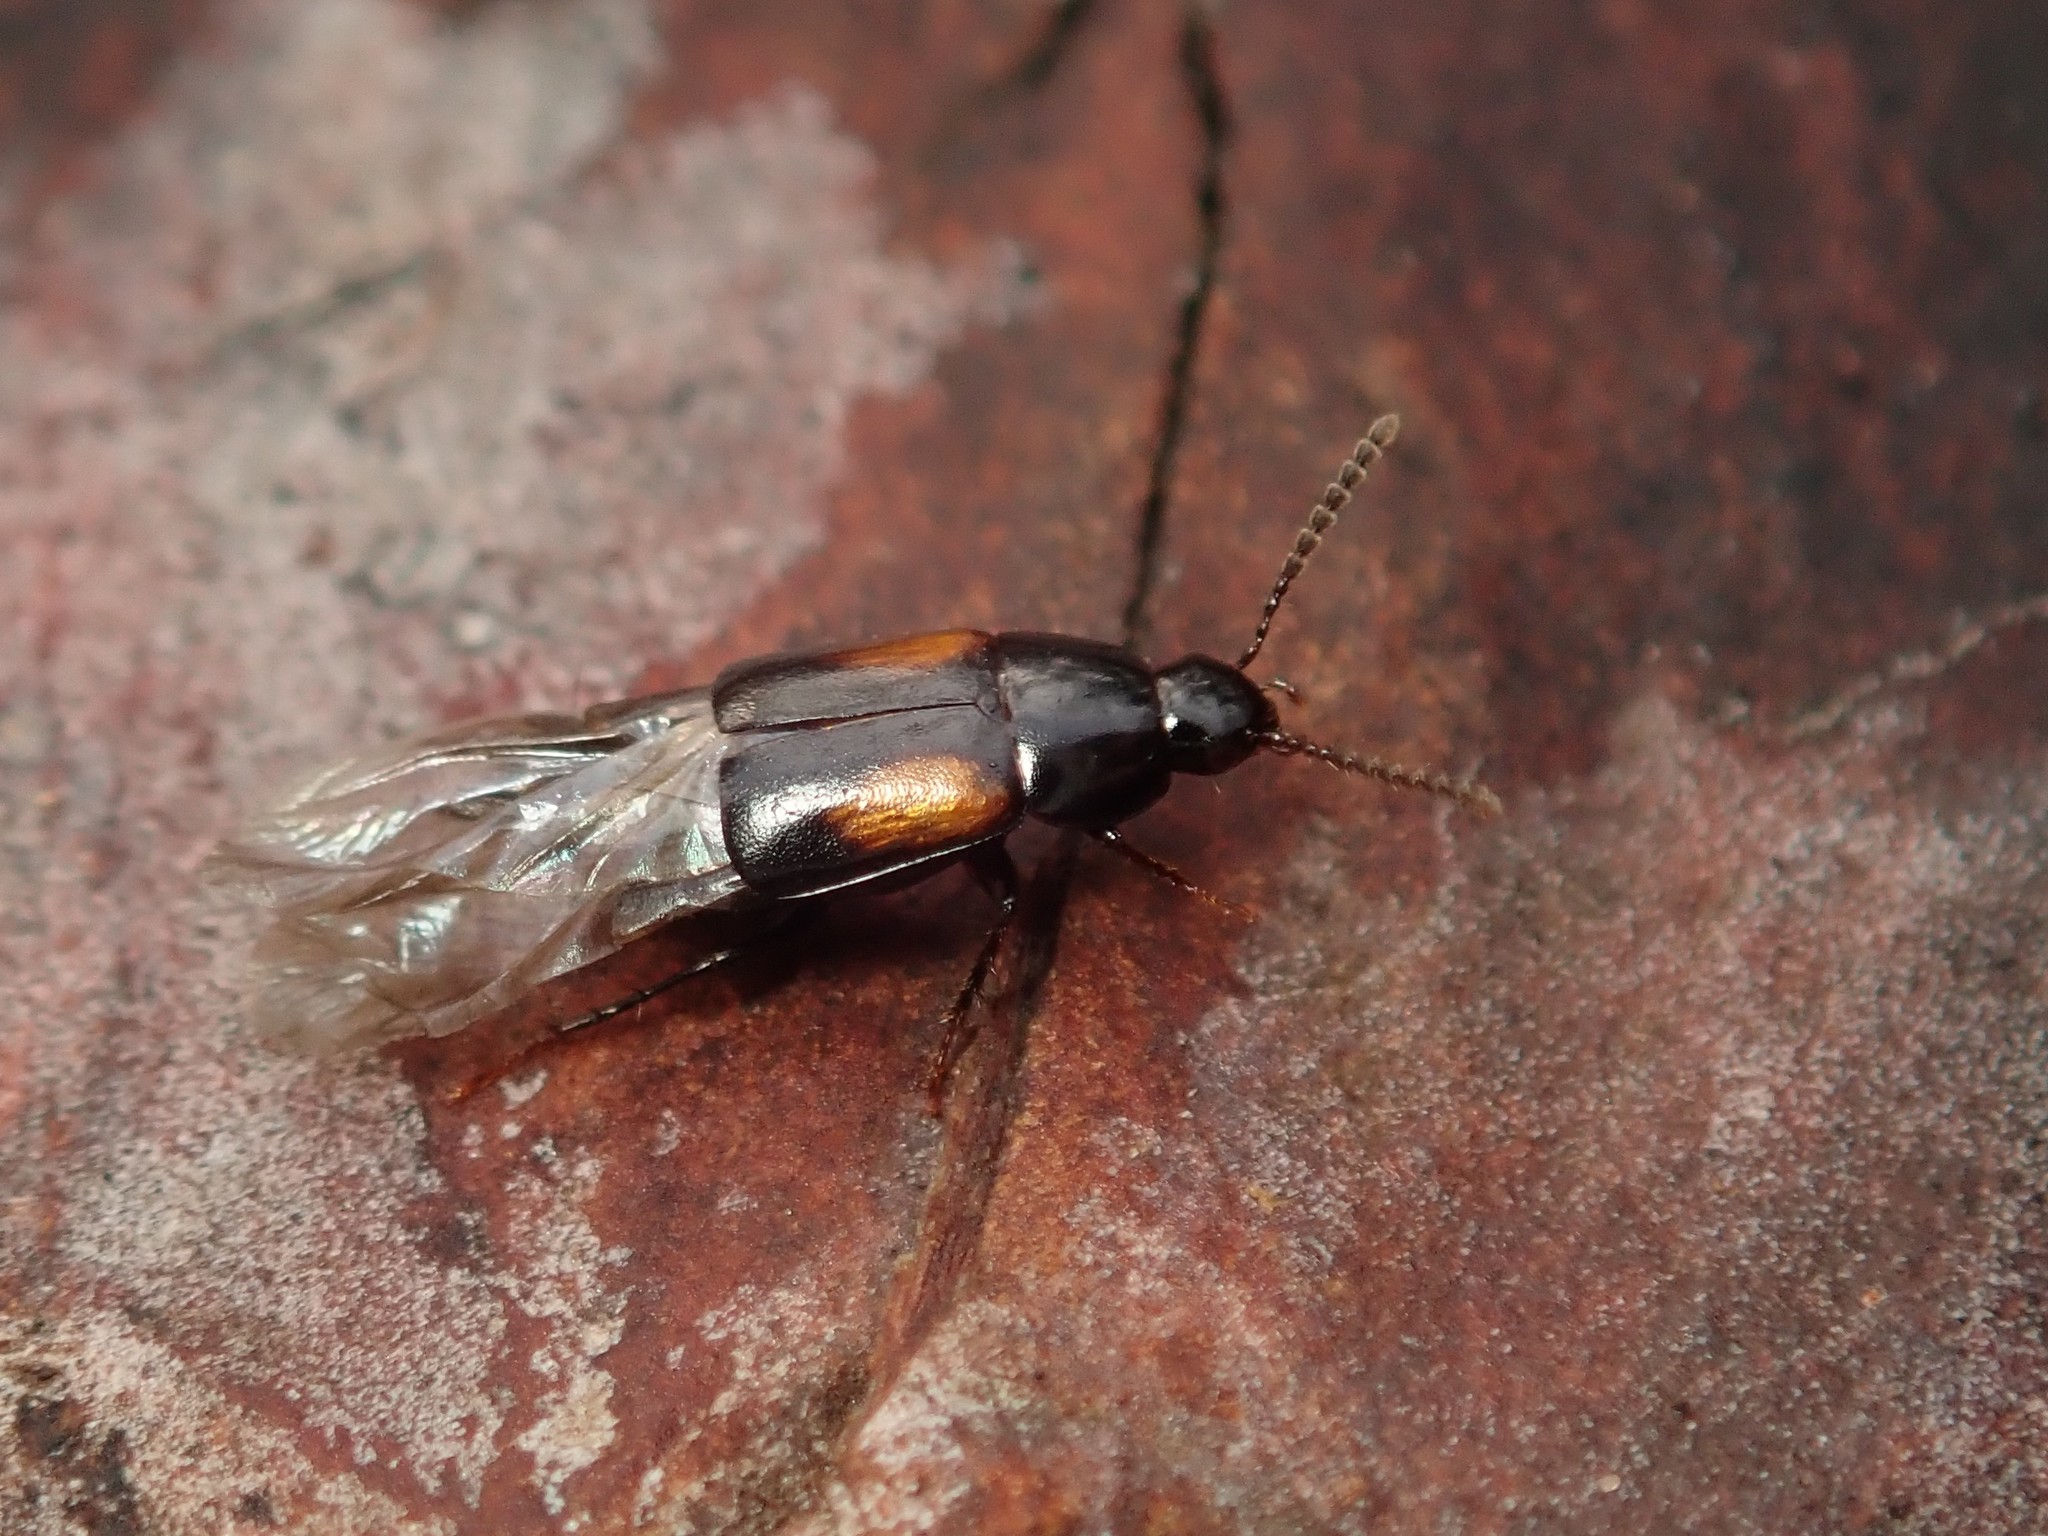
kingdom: Animalia
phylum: Arthropoda
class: Insecta
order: Coleoptera
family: Staphylinidae
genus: Tachinus
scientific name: Tachinus subterraneus
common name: Staph beetle
